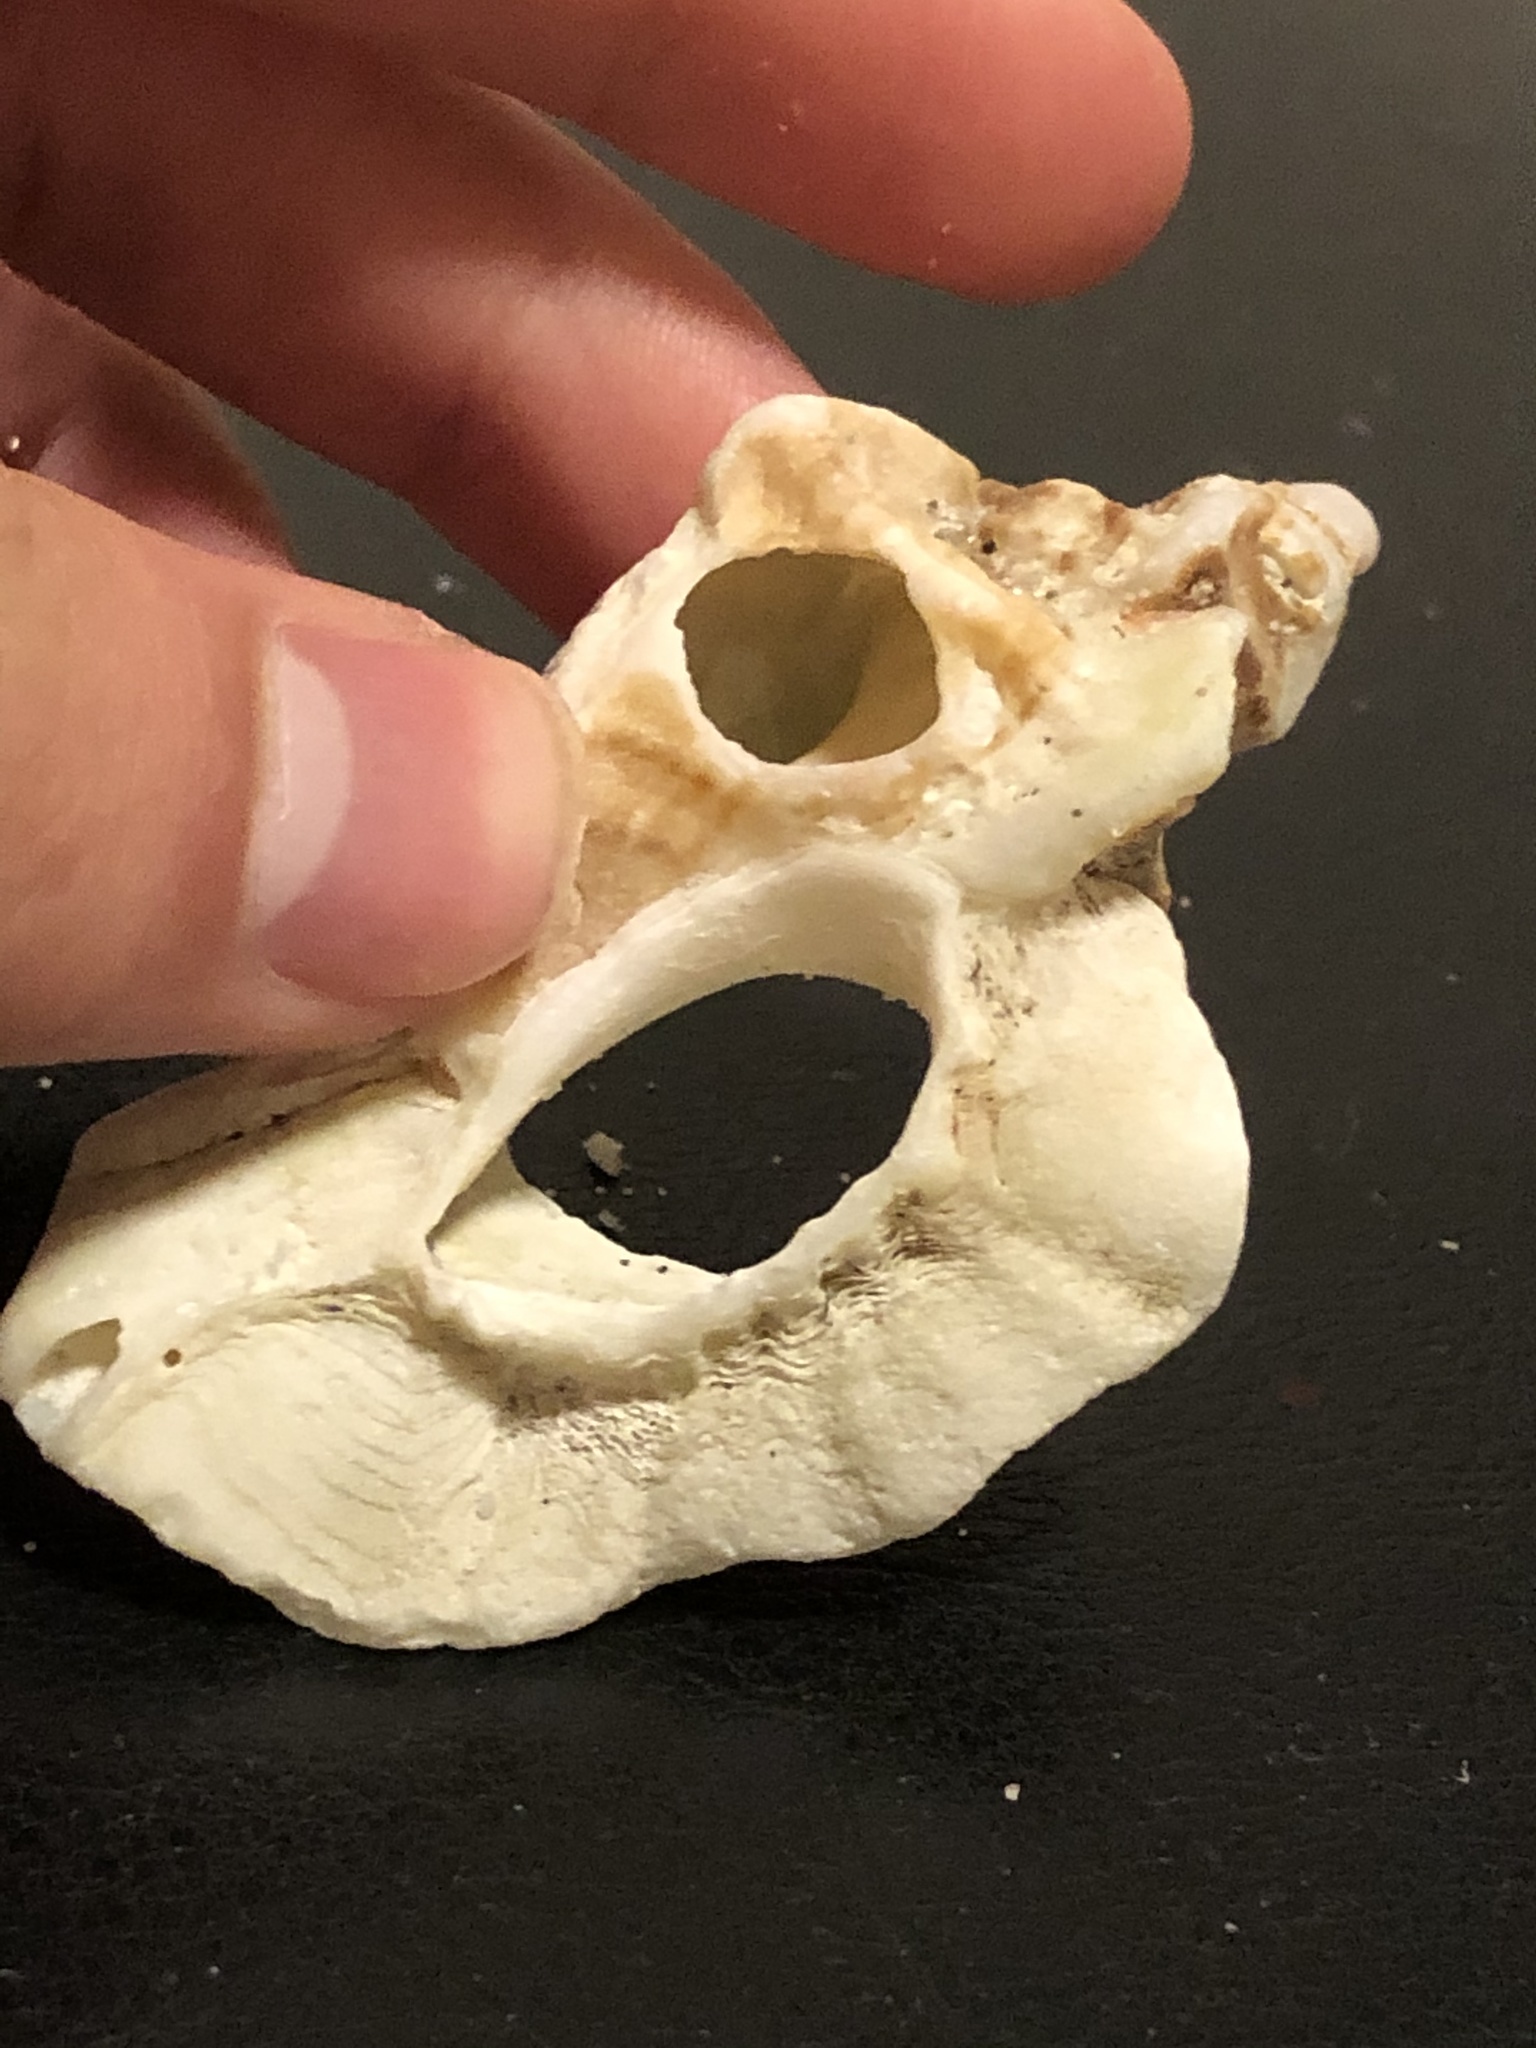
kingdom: Animalia
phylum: Mollusca
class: Gastropoda
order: Neogastropoda
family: Muricidae
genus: Ceratostoma
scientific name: Ceratostoma foliatum
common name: Foliate thorn purpura
